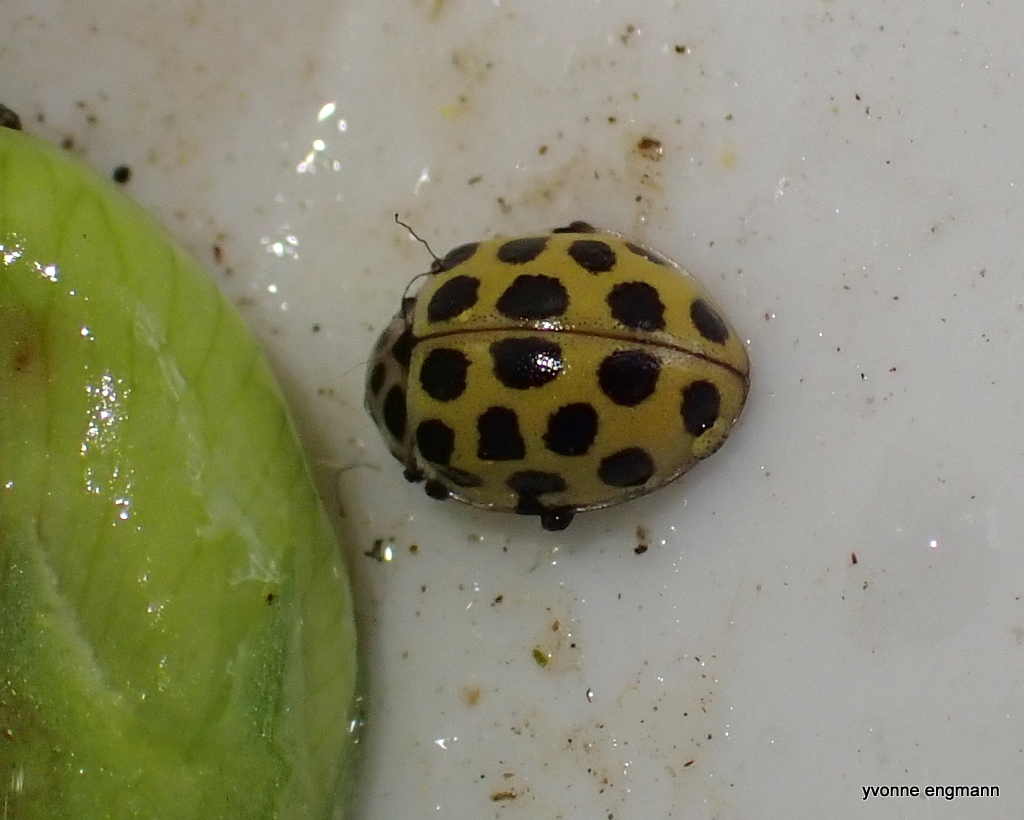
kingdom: Animalia
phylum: Arthropoda
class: Insecta
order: Coleoptera
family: Coccinellidae
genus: Psyllobora
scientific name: Psyllobora vigintiduopunctata
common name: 22-spot ladybird
